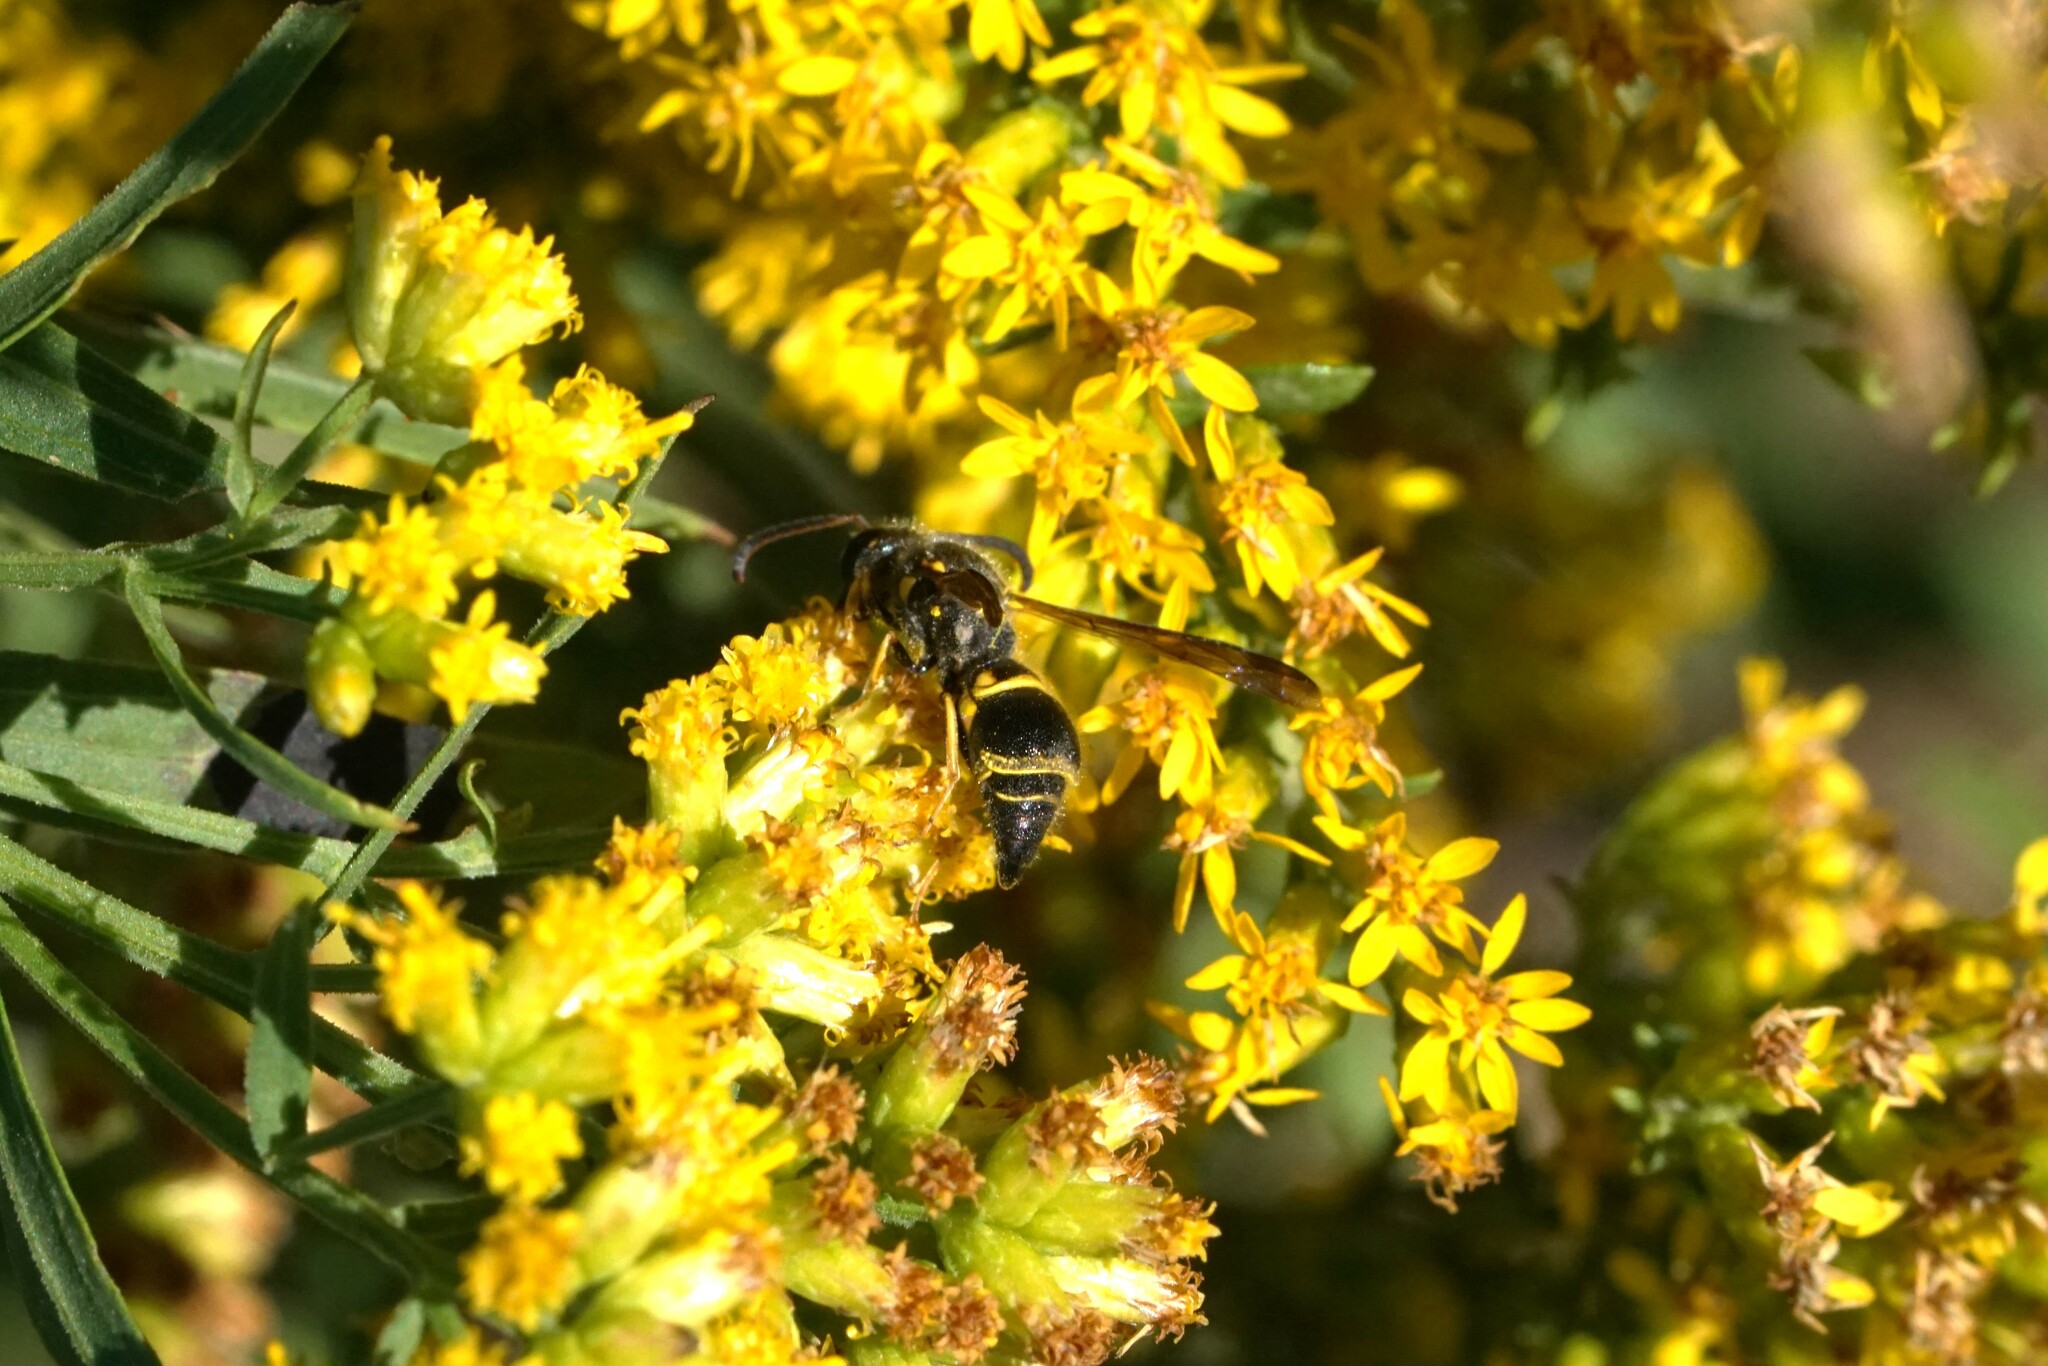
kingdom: Animalia
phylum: Arthropoda
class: Insecta
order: Hymenoptera
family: Vespidae
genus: Ancistrocerus
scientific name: Ancistrocerus campestris
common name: Smiling mason wasp
